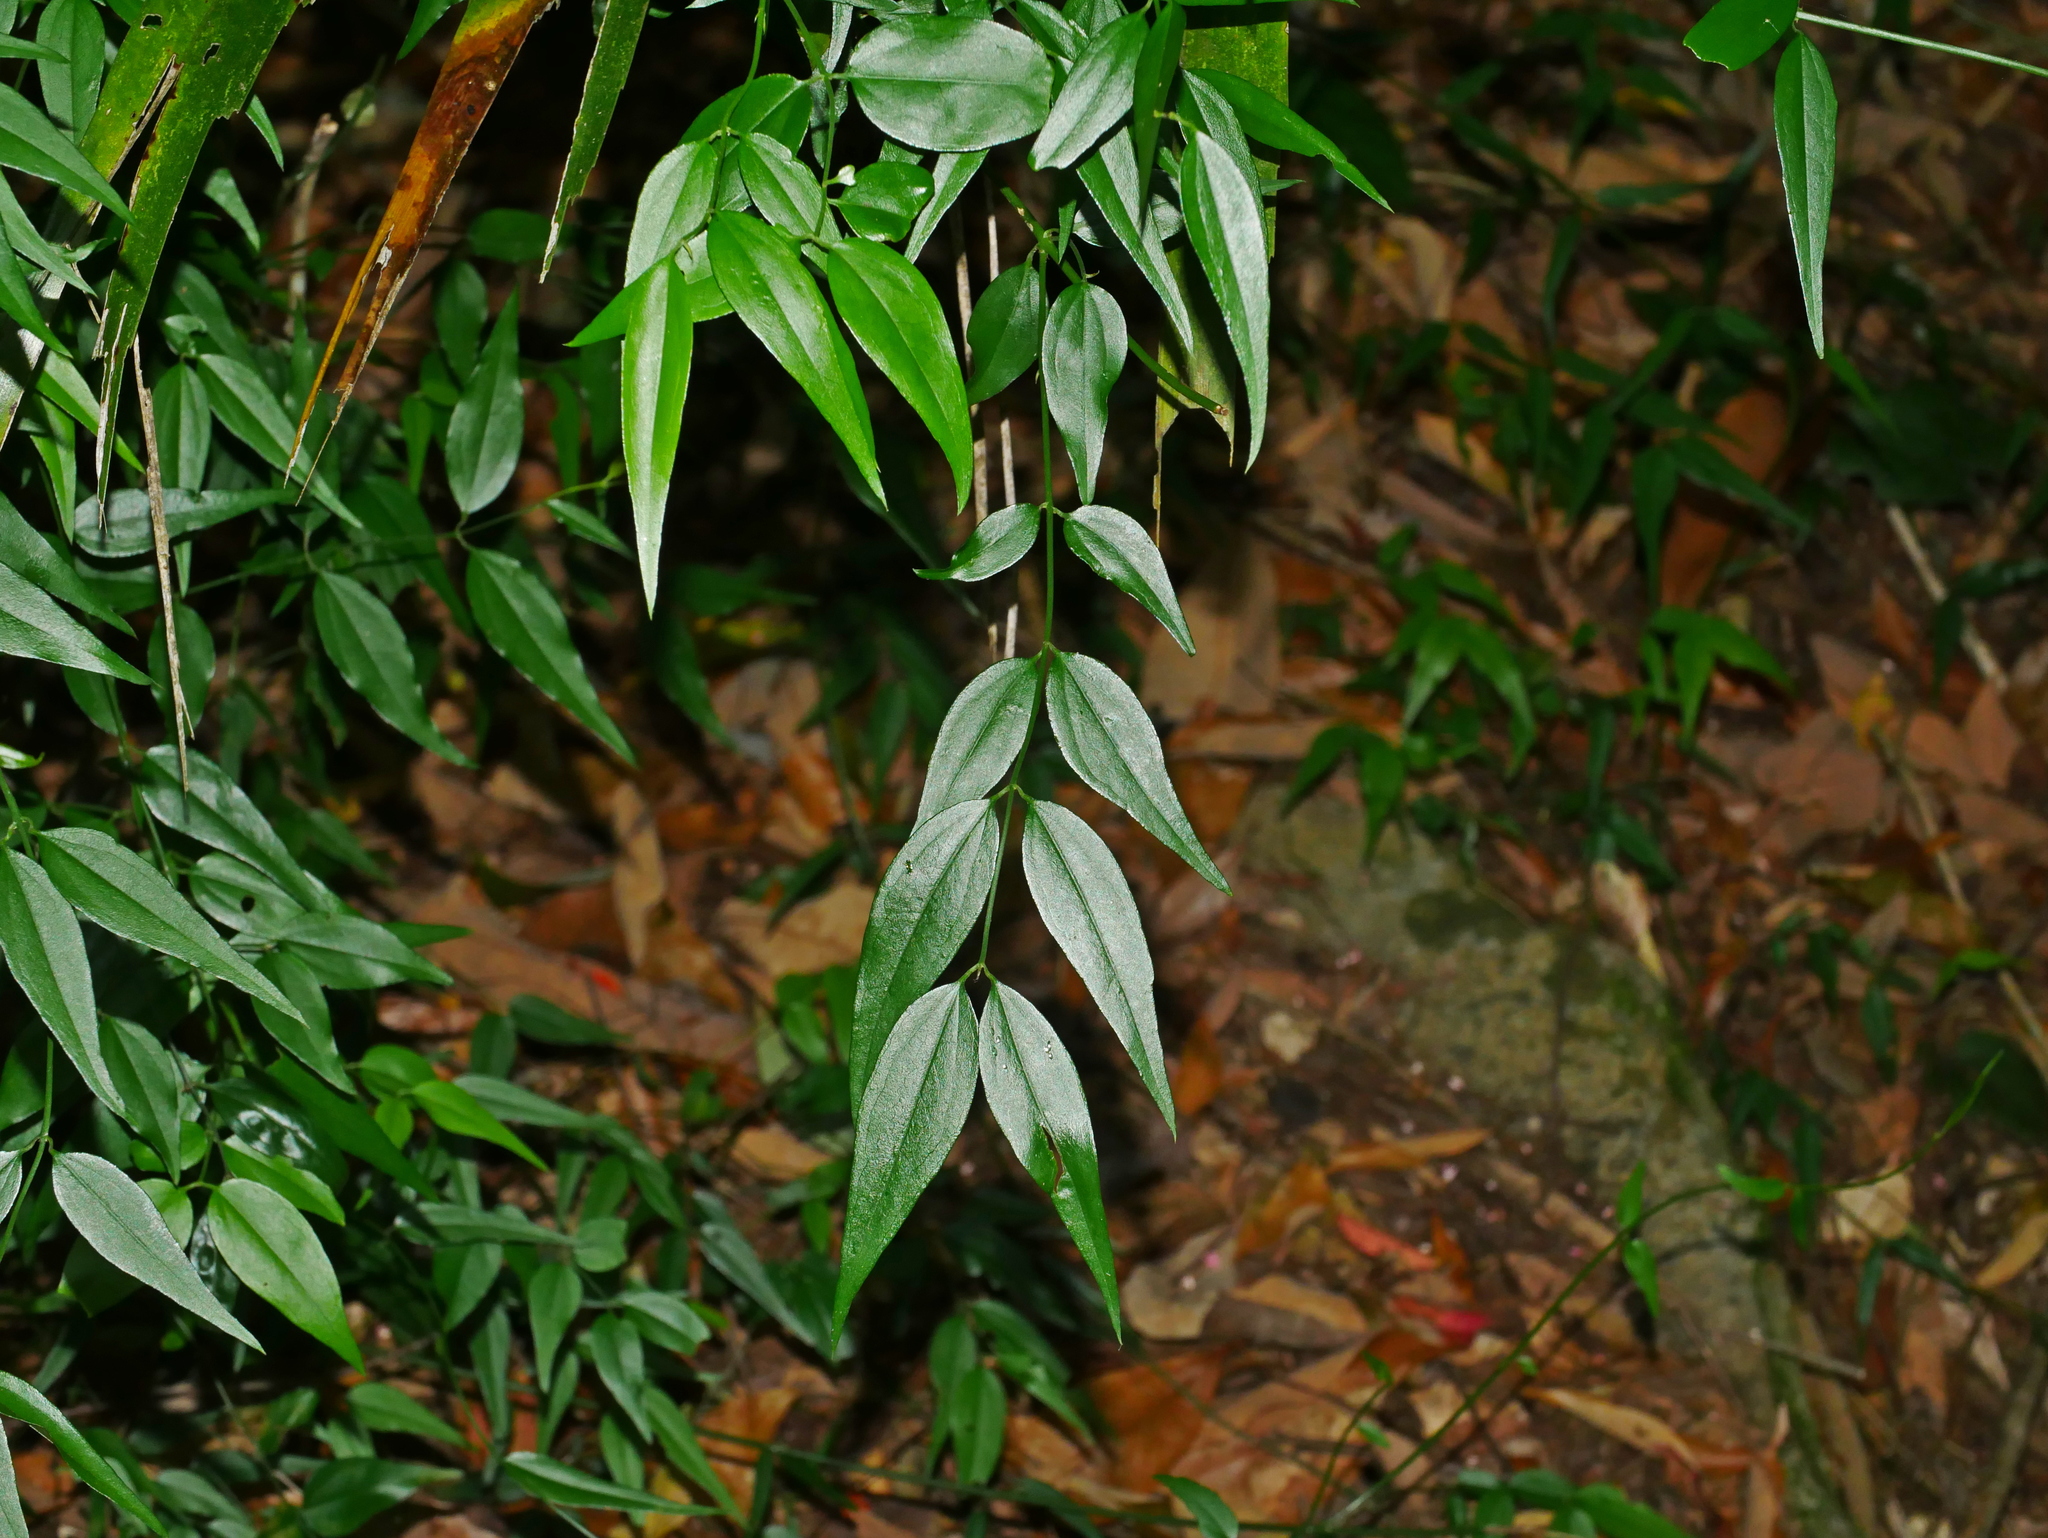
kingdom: Plantae
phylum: Tracheophyta
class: Magnoliopsida
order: Lamiales
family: Oleaceae
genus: Jasminum
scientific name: Jasminum nervosum
